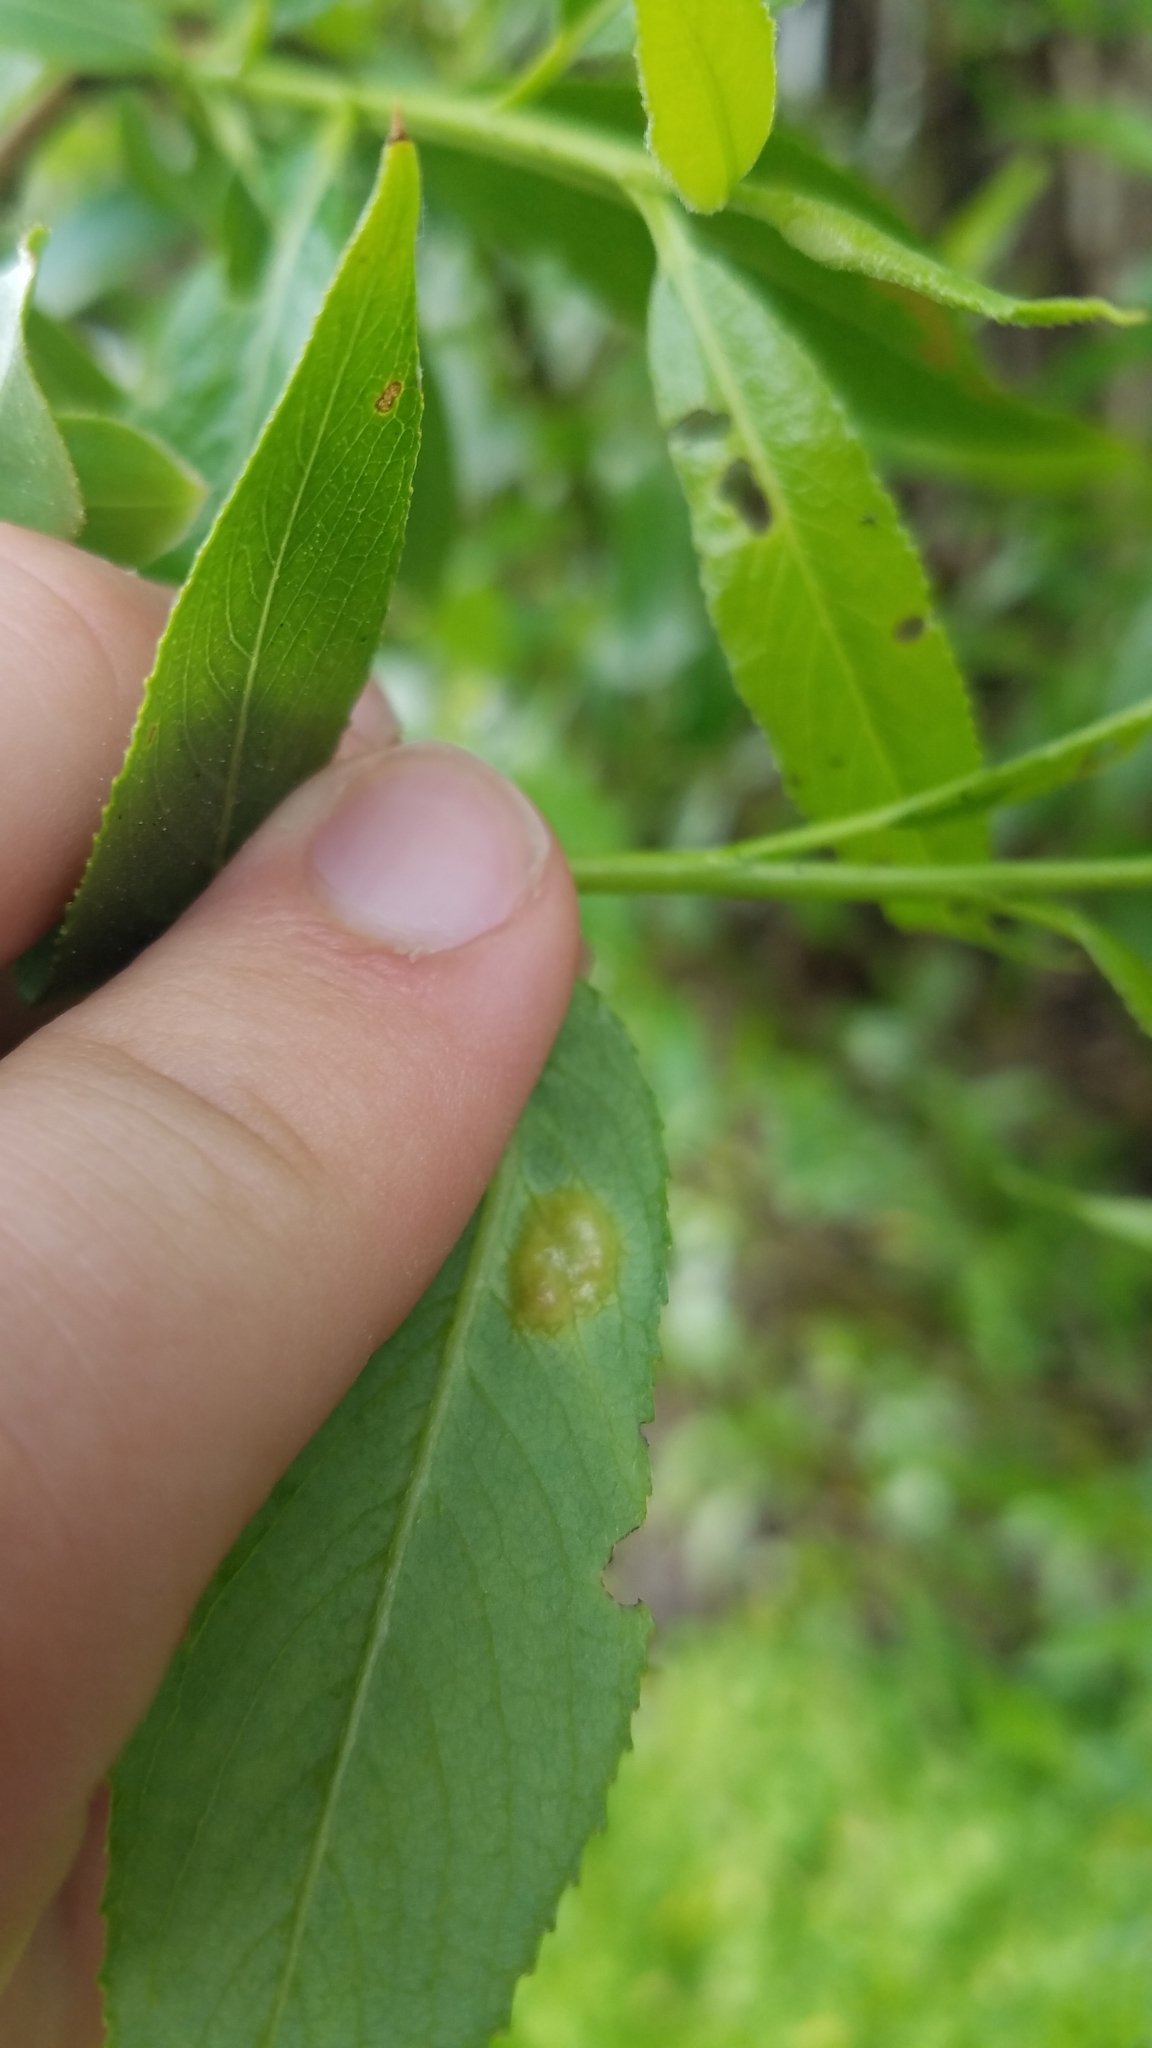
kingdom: Animalia
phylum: Arthropoda
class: Insecta
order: Hymenoptera
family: Tenthredinidae
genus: Pontania
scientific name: Pontania proxima
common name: Common sawfly
